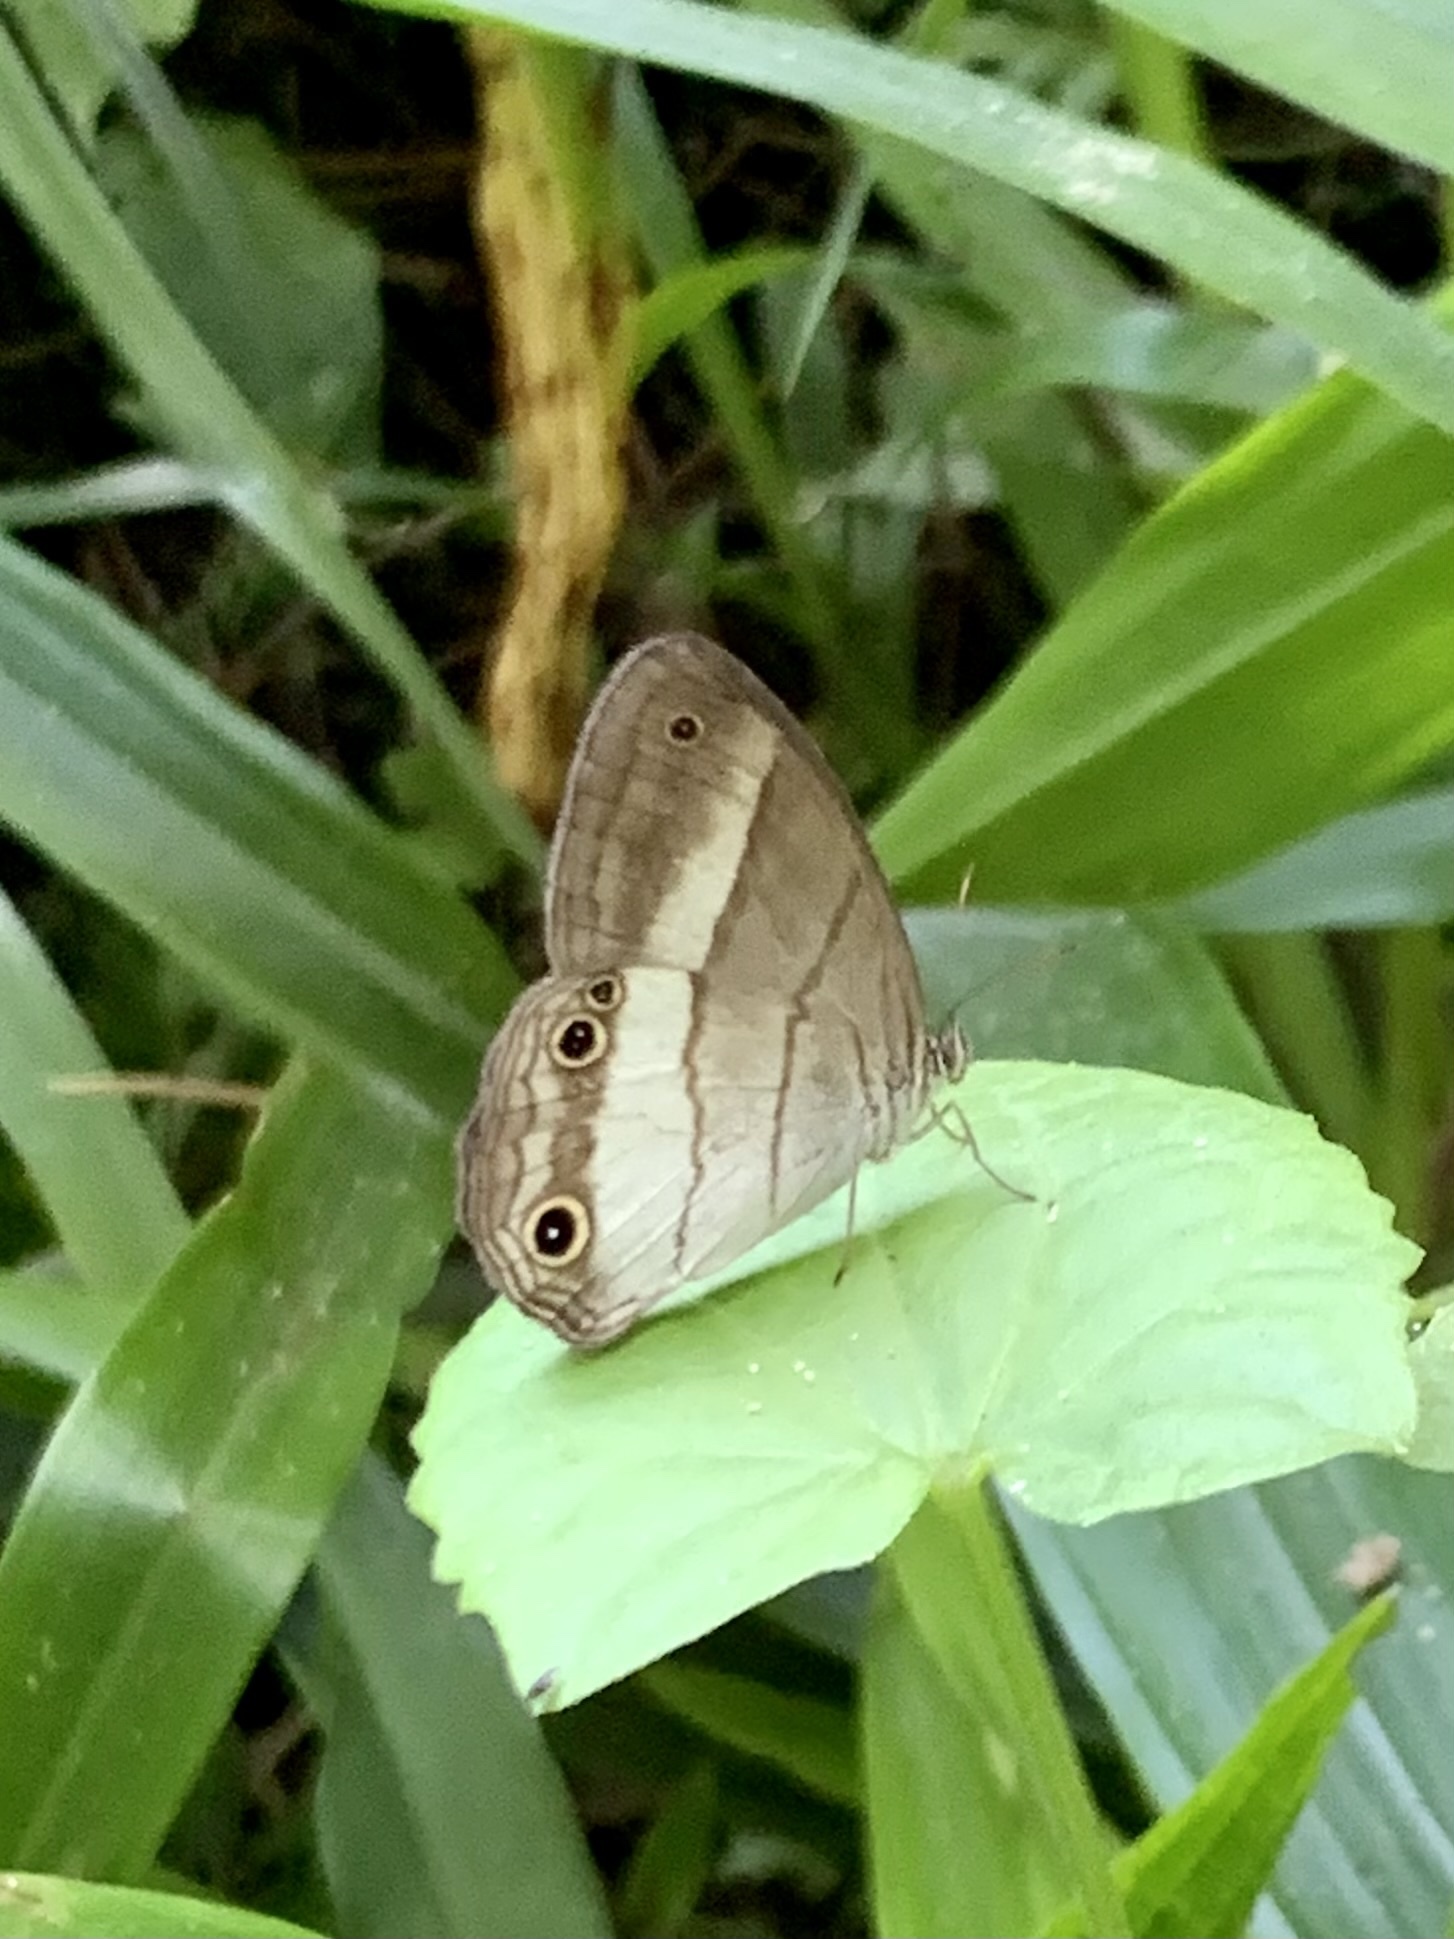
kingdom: Animalia
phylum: Arthropoda
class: Insecta
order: Lepidoptera
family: Nymphalidae
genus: Euptychoides
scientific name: Euptychoides saturnus
